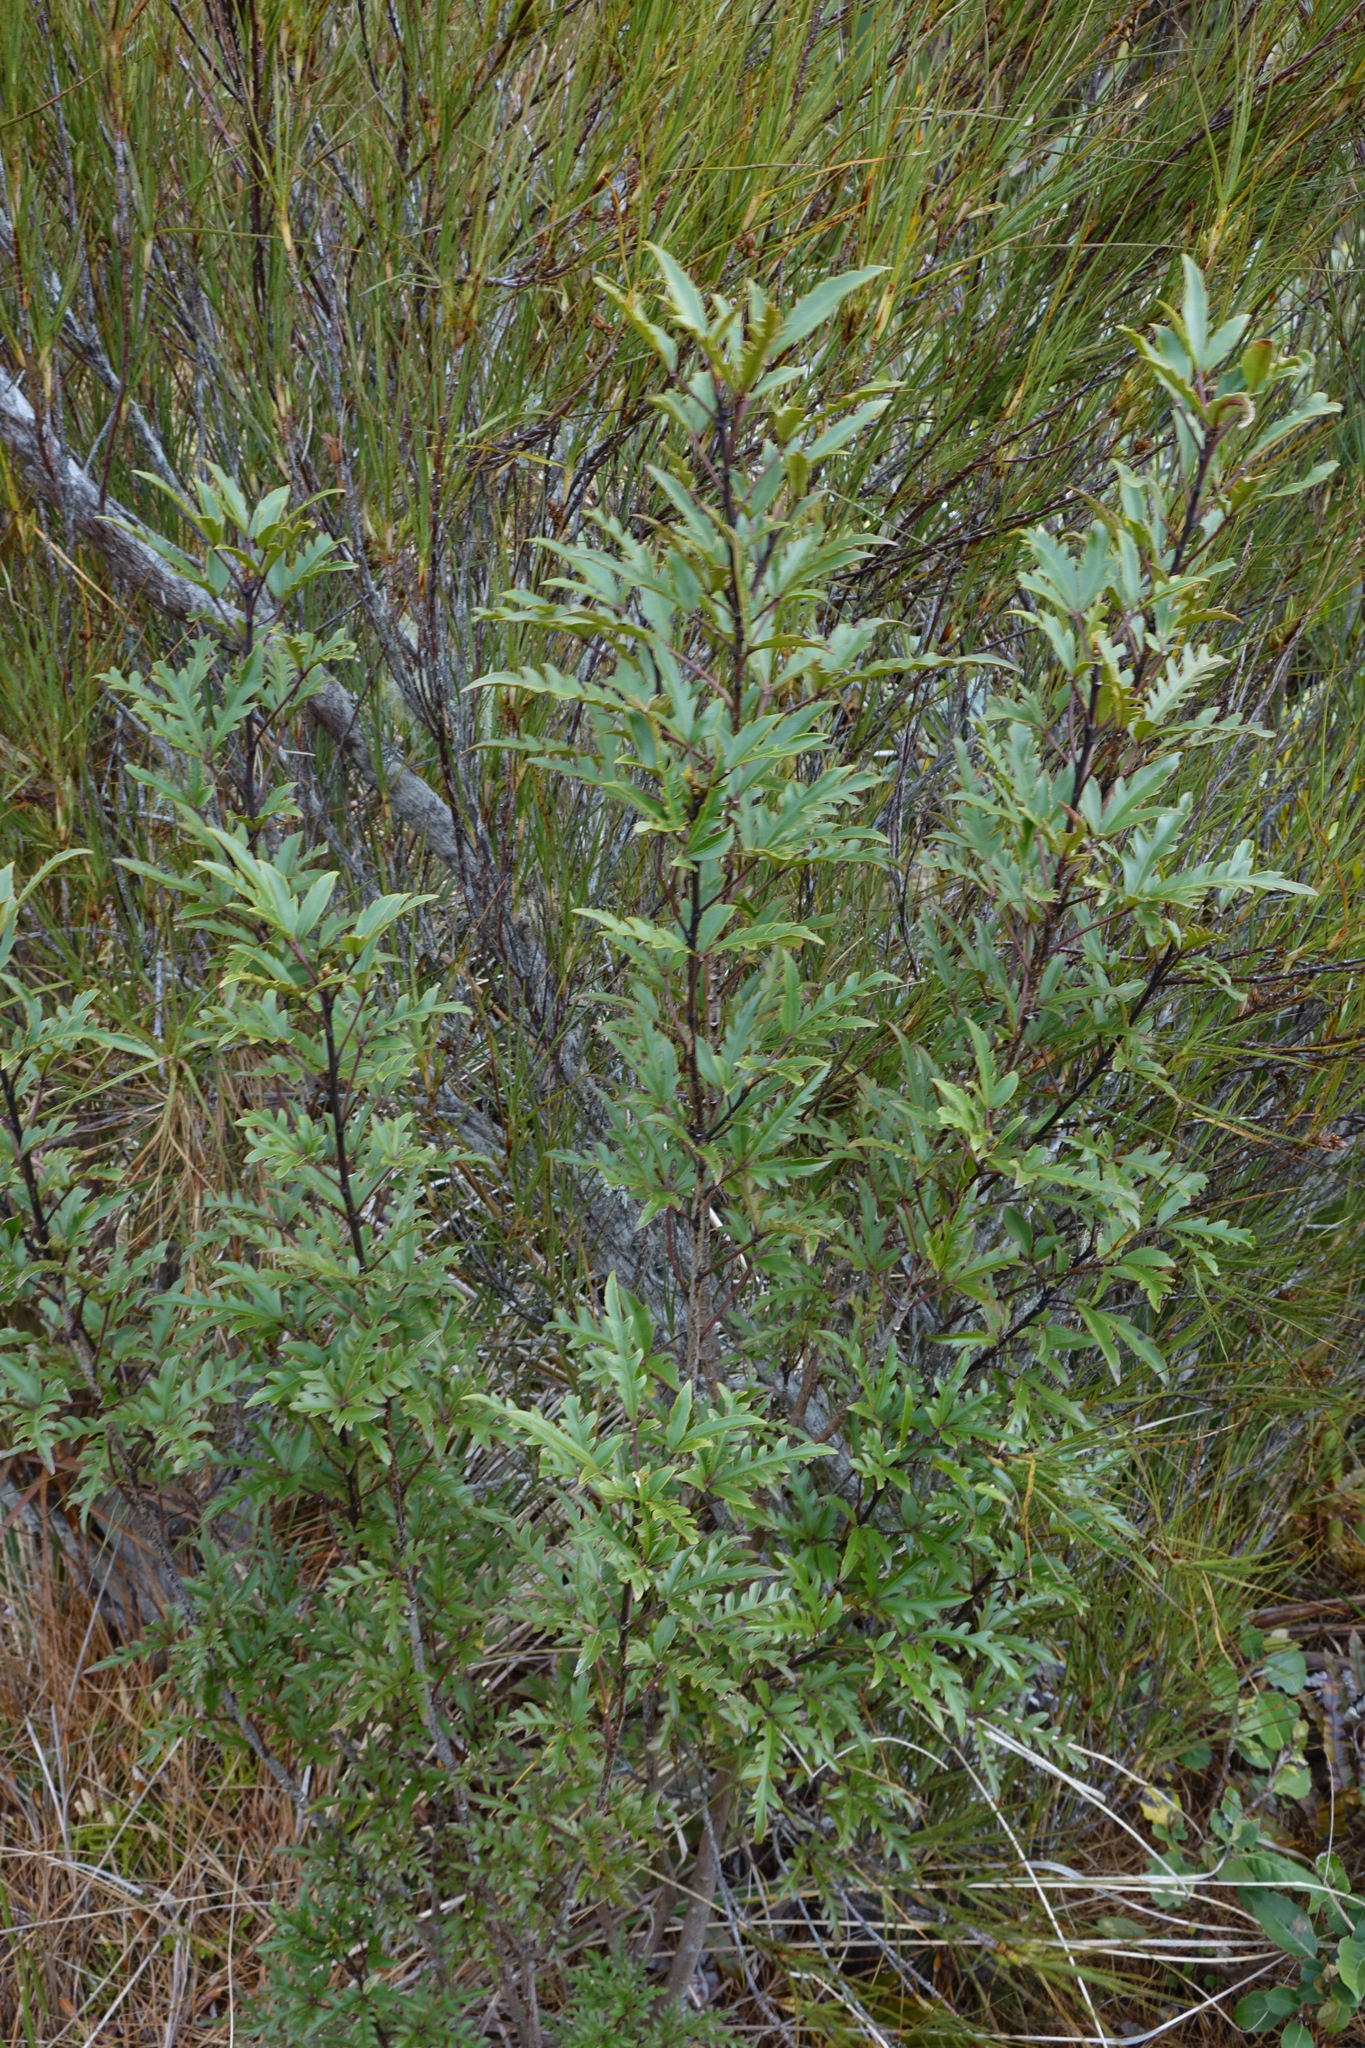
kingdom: Plantae
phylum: Tracheophyta
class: Magnoliopsida
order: Apiales
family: Araliaceae
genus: Raukaua
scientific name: Raukaua simplex
